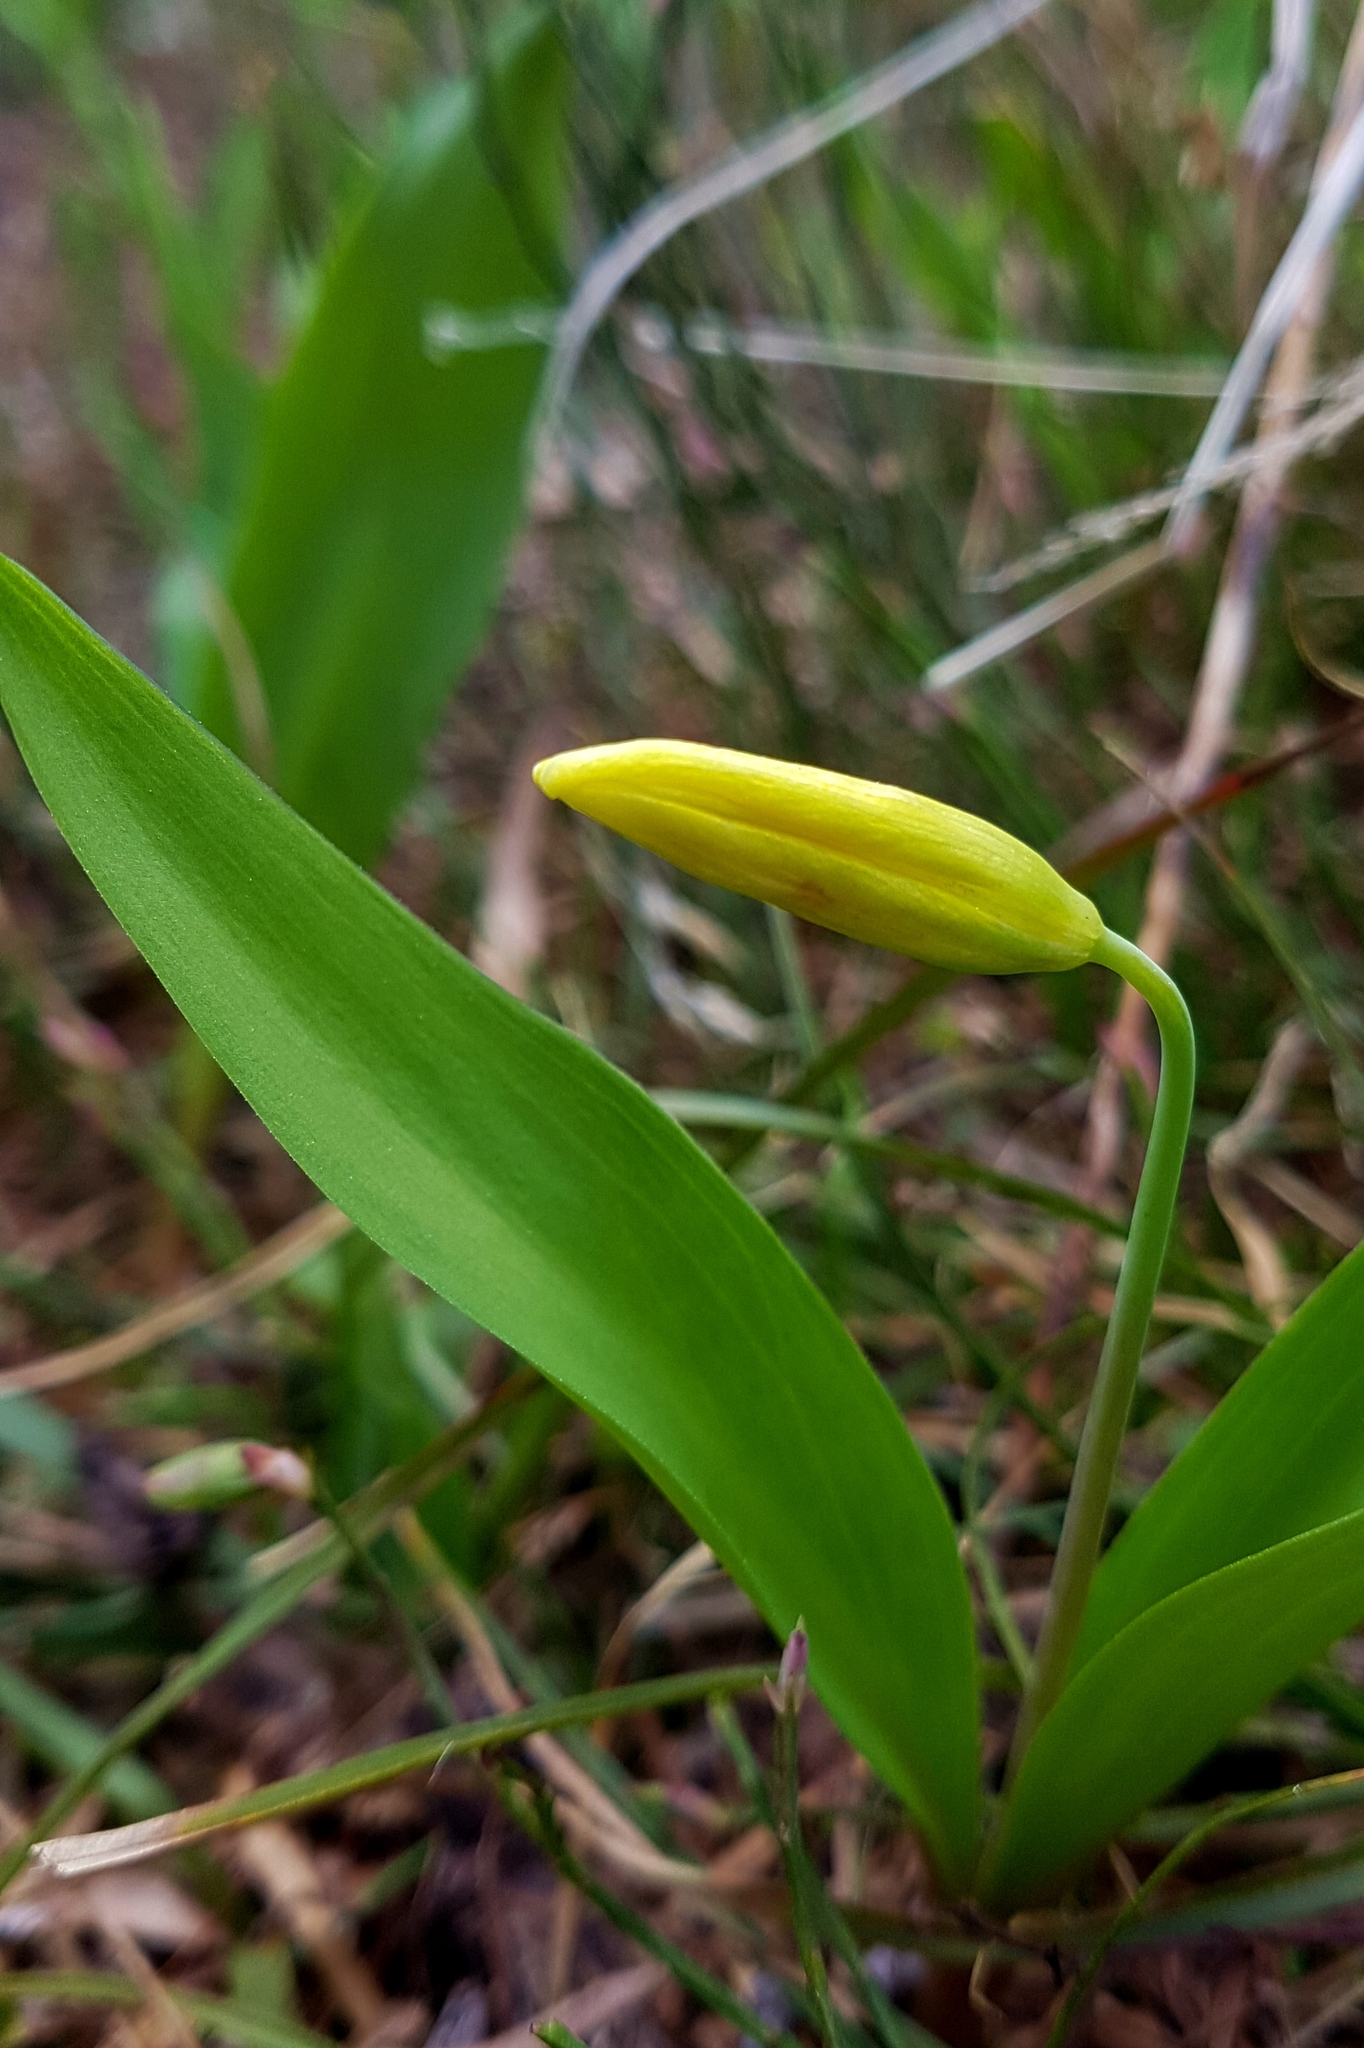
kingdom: Plantae
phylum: Tracheophyta
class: Liliopsida
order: Liliales
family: Liliaceae
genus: Erythronium
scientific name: Erythronium grandiflorum
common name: Avalanche-lily
